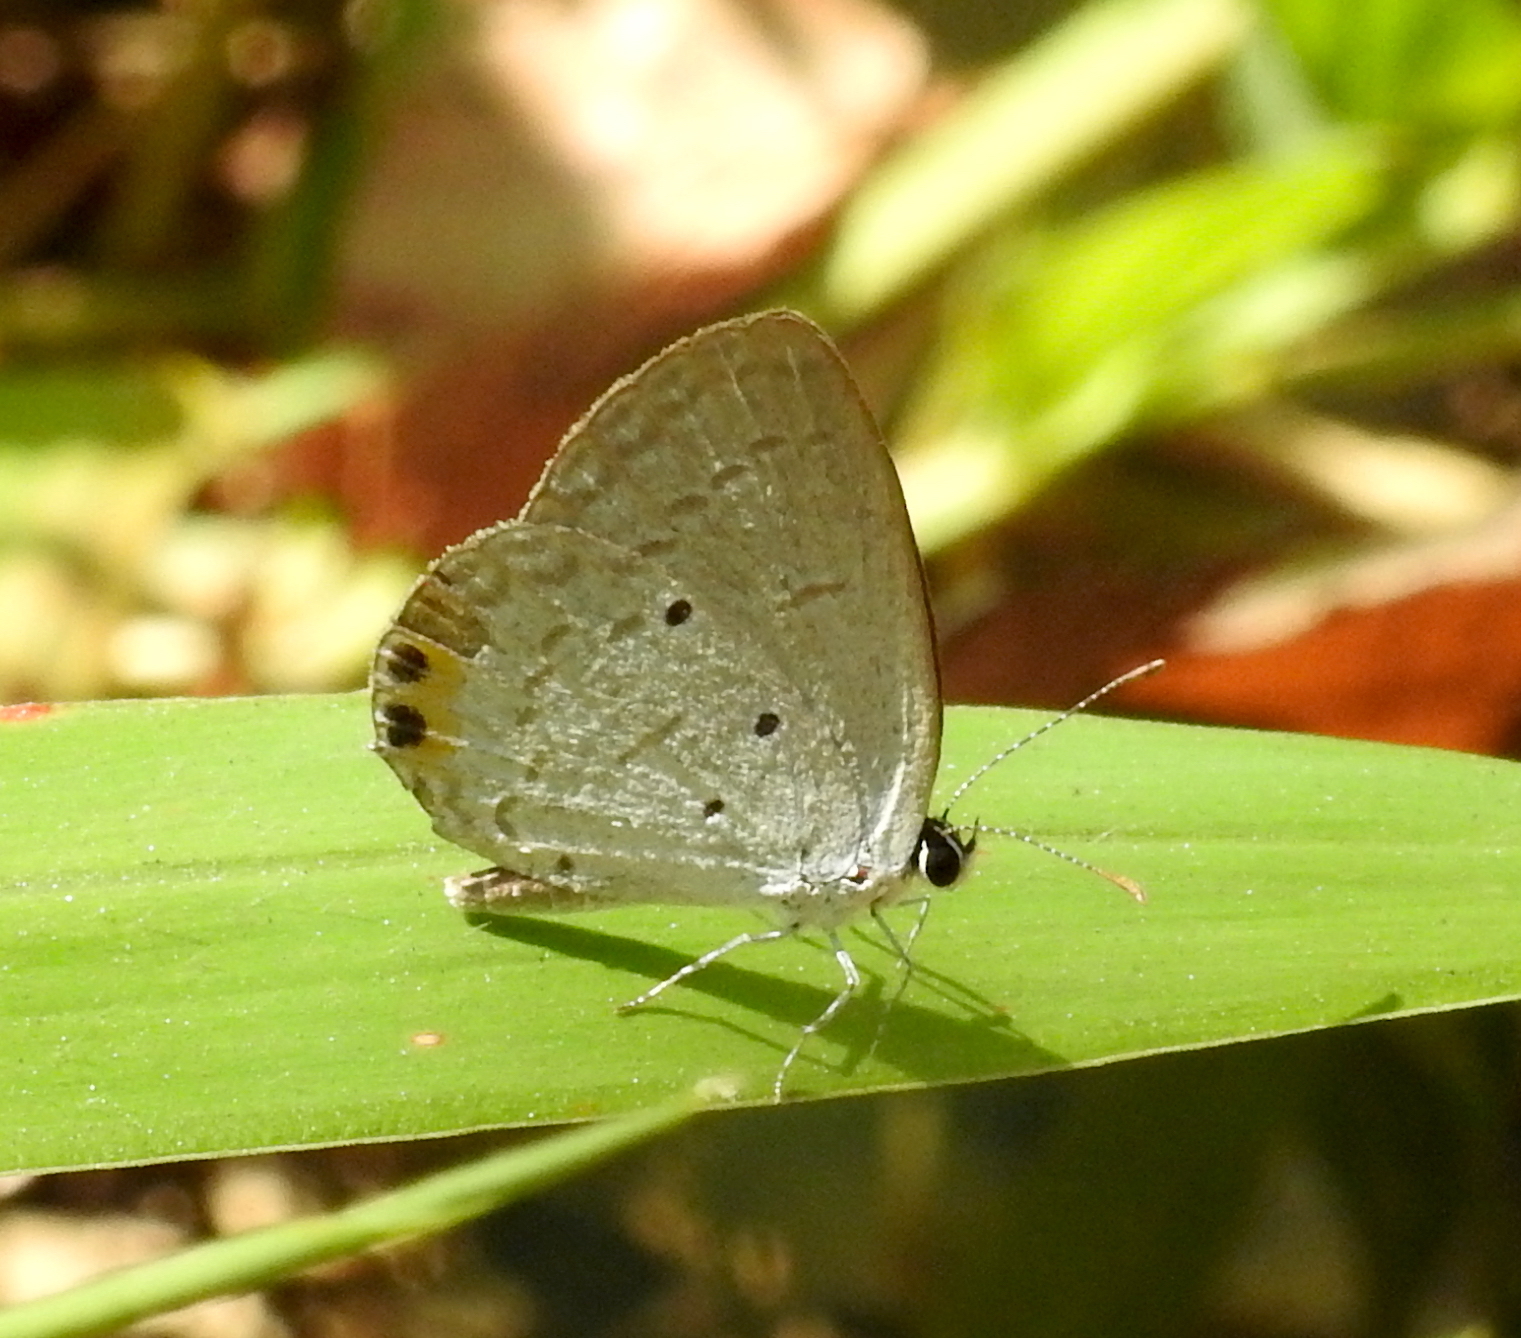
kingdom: Animalia
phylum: Arthropoda
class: Insecta
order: Lepidoptera
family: Lycaenidae
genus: Everes
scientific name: Everes lacturnus
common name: Orange-tipped pea-blue
